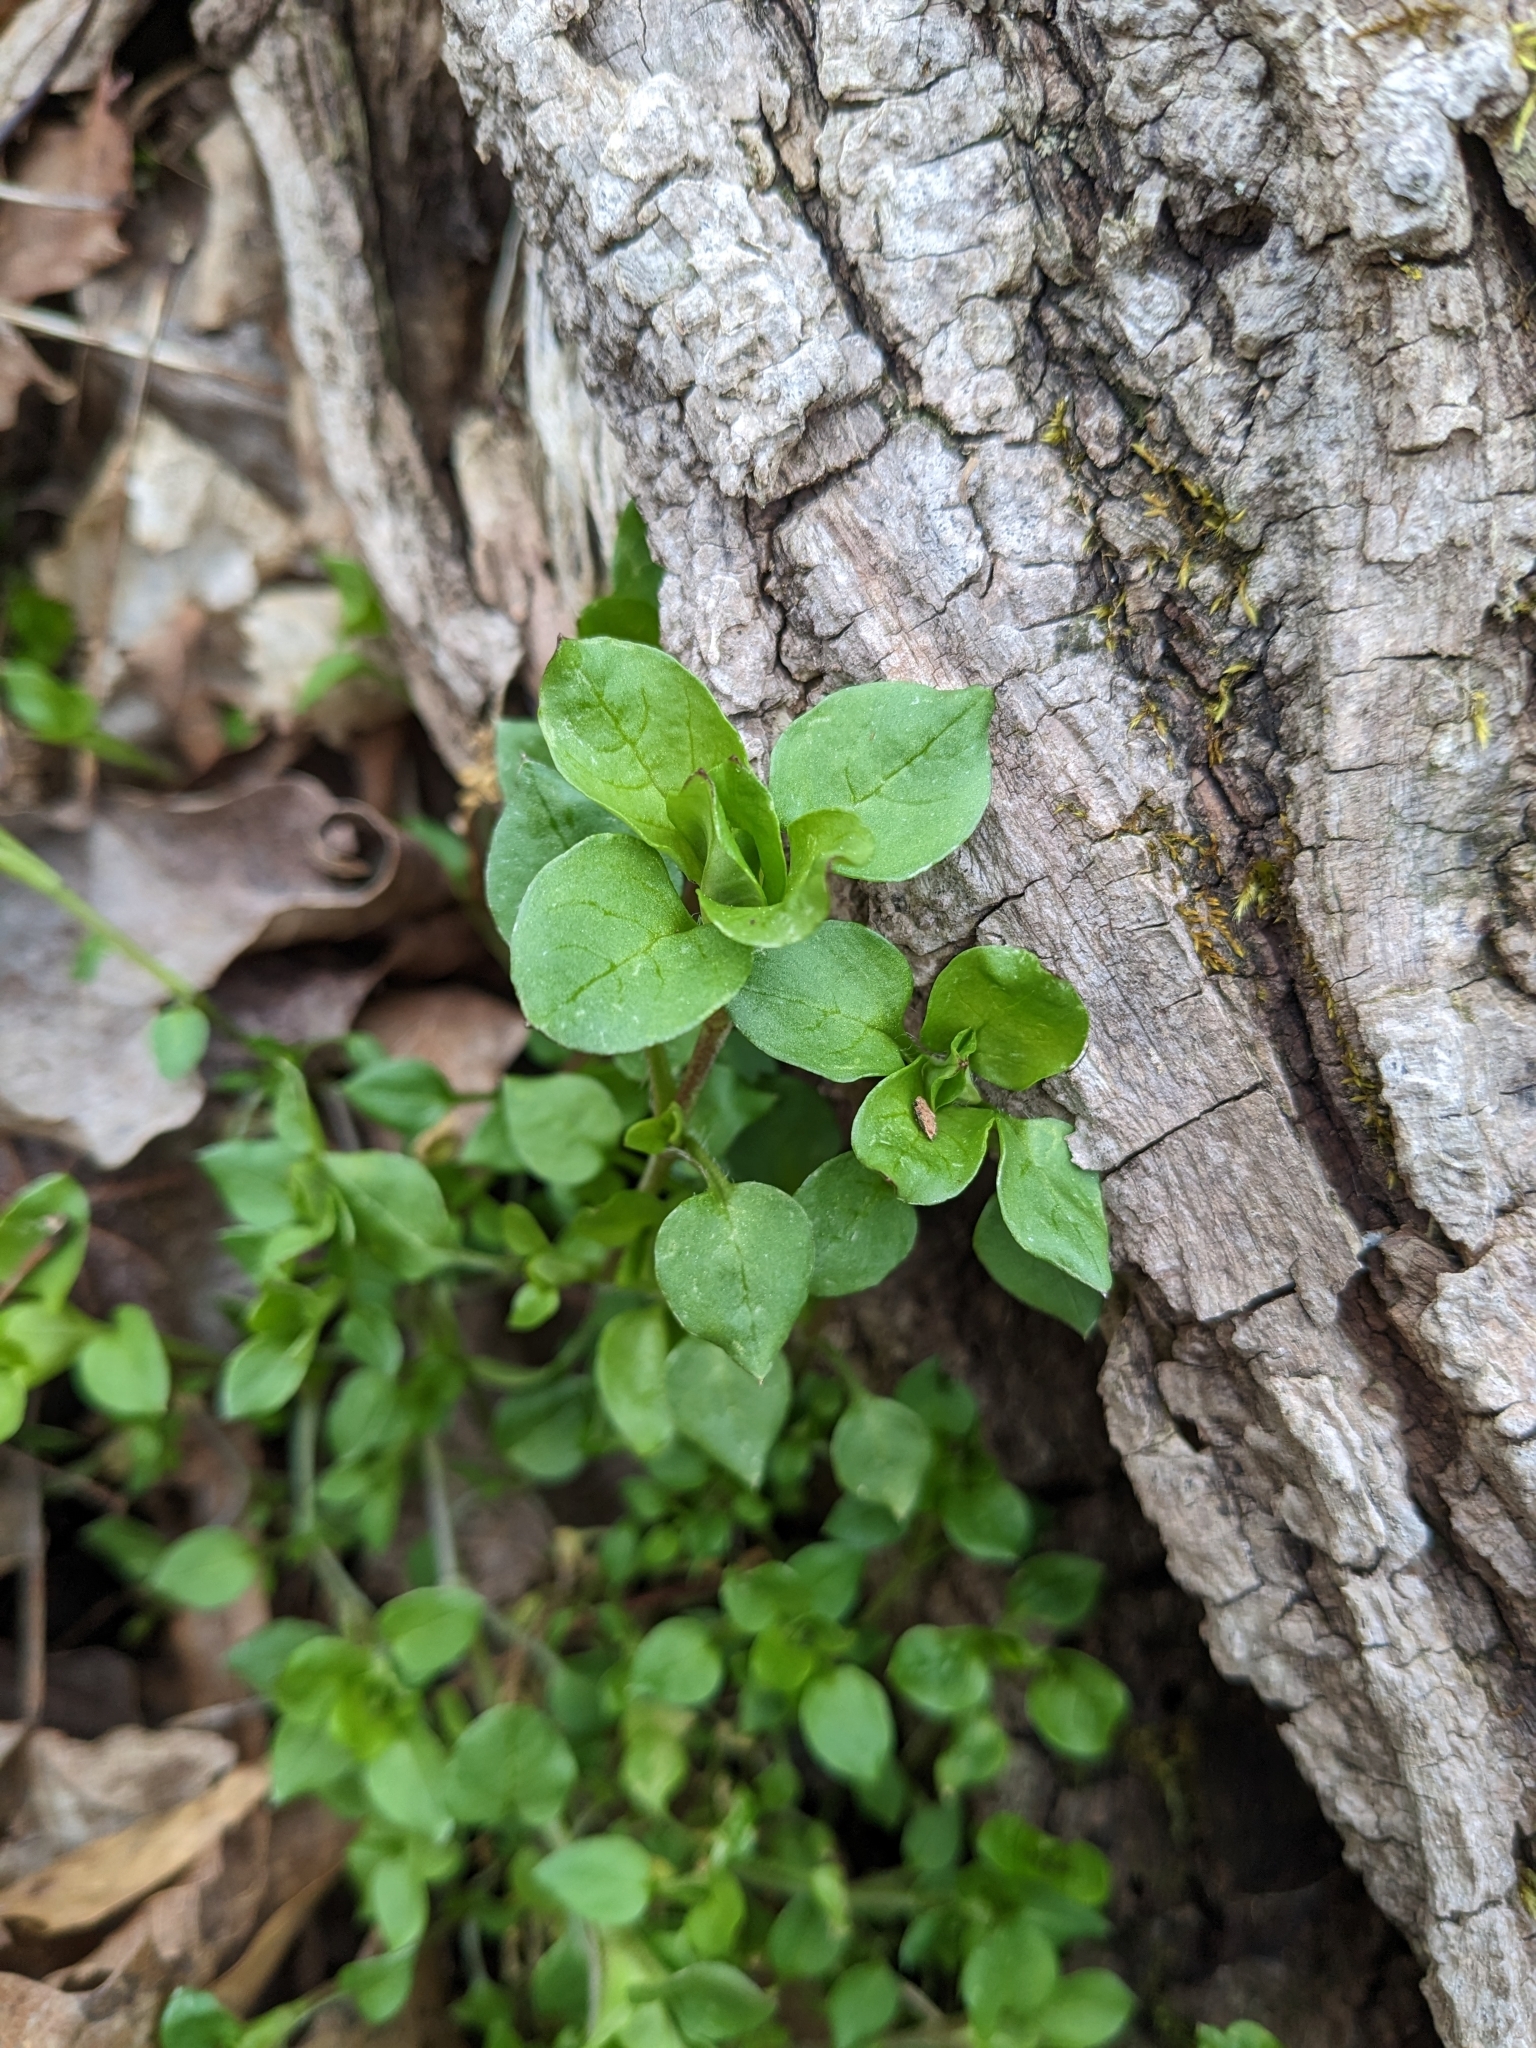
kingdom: Plantae
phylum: Tracheophyta
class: Magnoliopsida
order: Caryophyllales
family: Caryophyllaceae
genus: Stellaria
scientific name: Stellaria media
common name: Common chickweed
